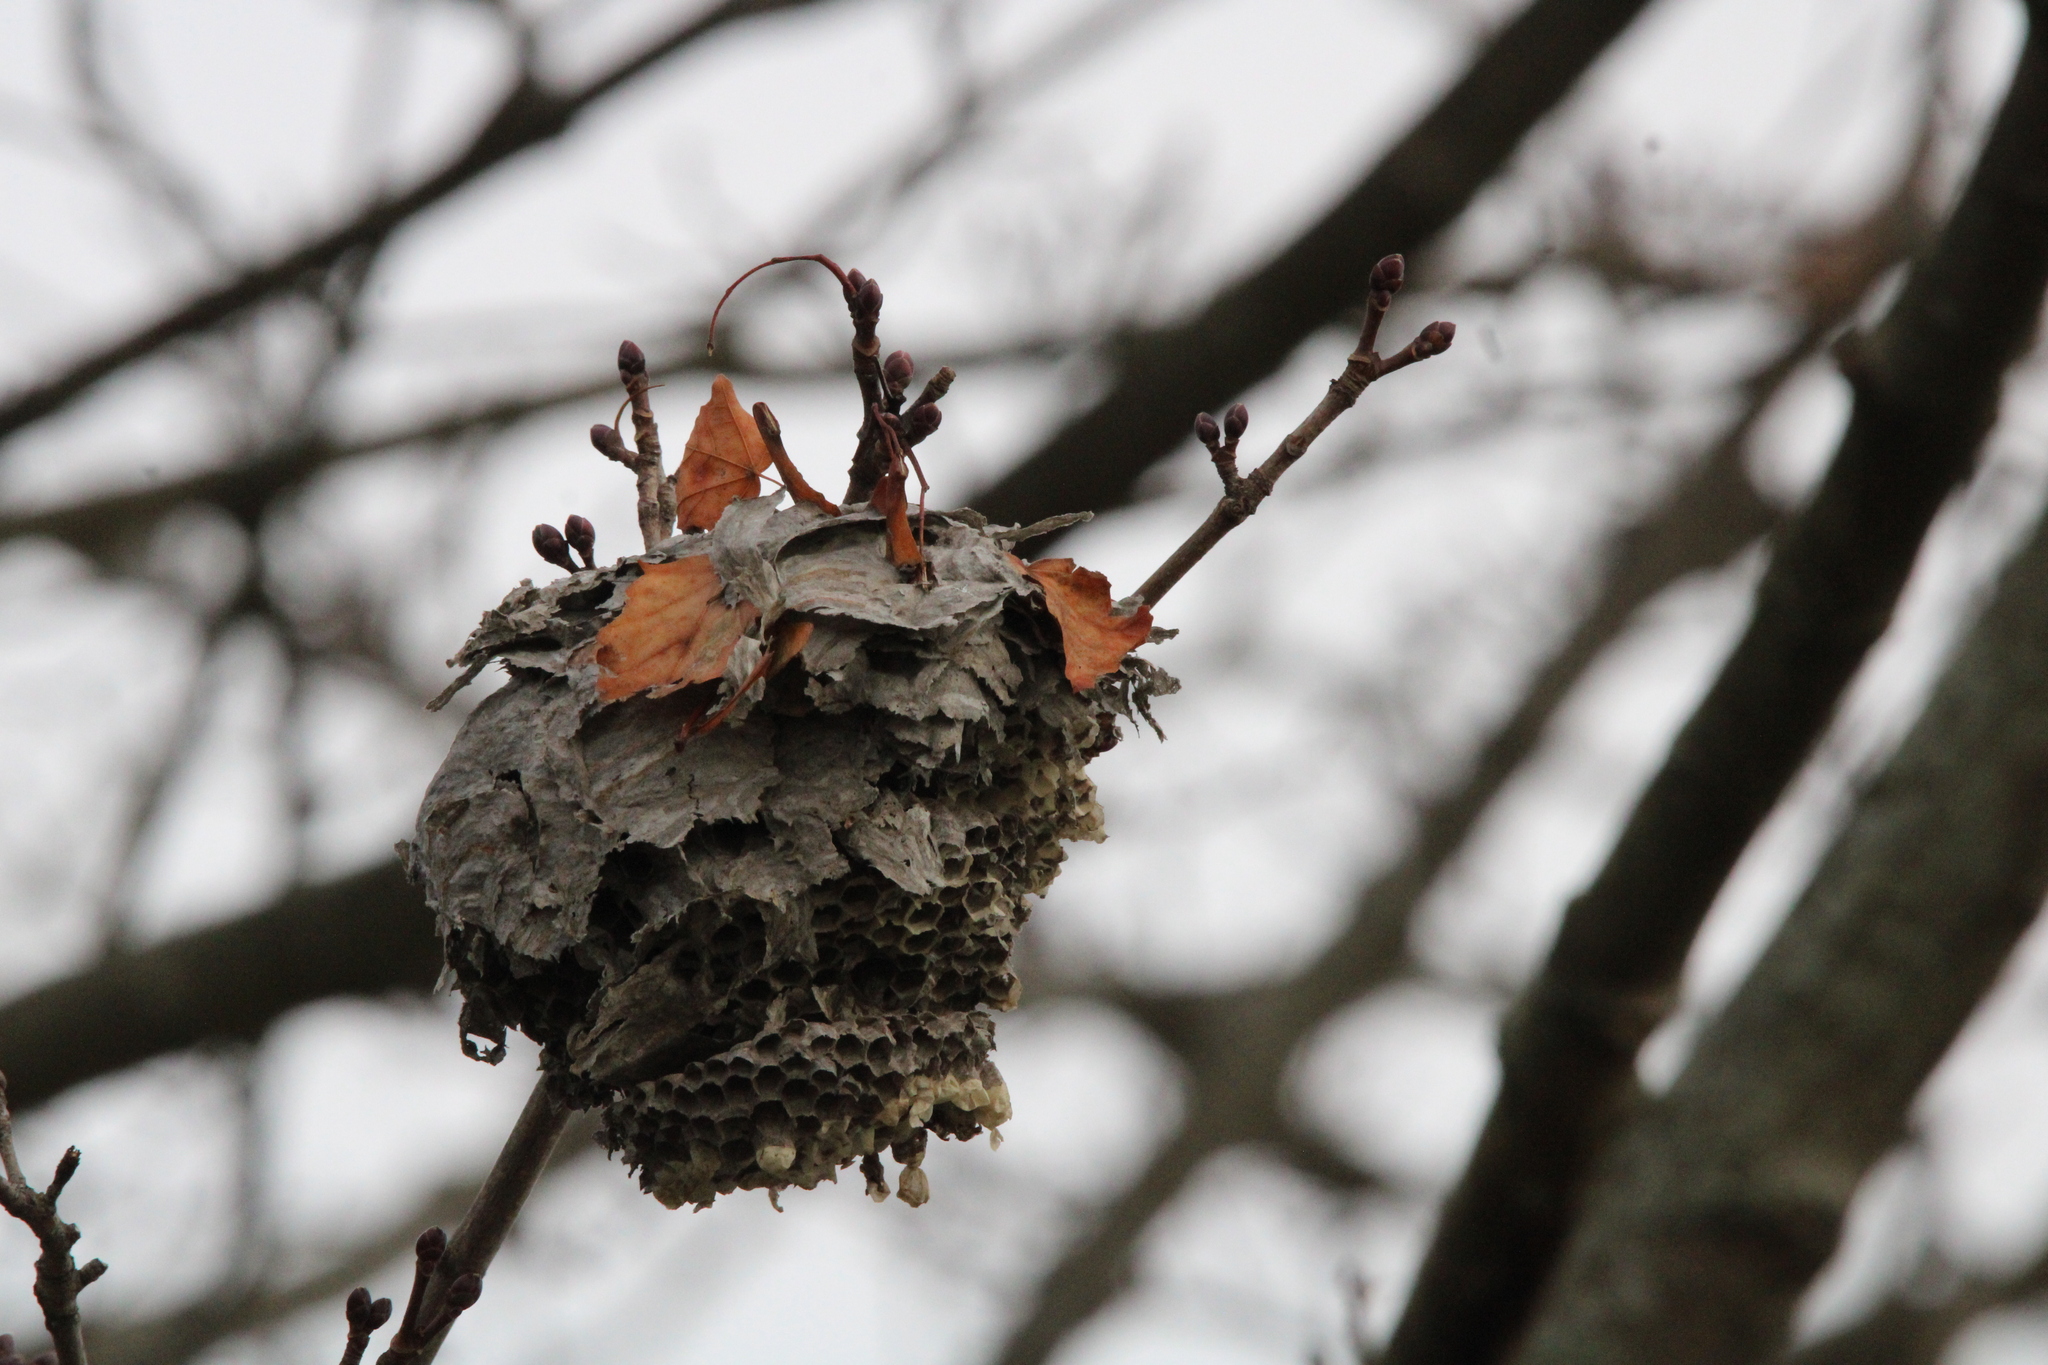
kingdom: Animalia
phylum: Arthropoda
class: Insecta
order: Hymenoptera
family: Vespidae
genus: Dolichovespula
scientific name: Dolichovespula maculata
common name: Bald-faced hornet
